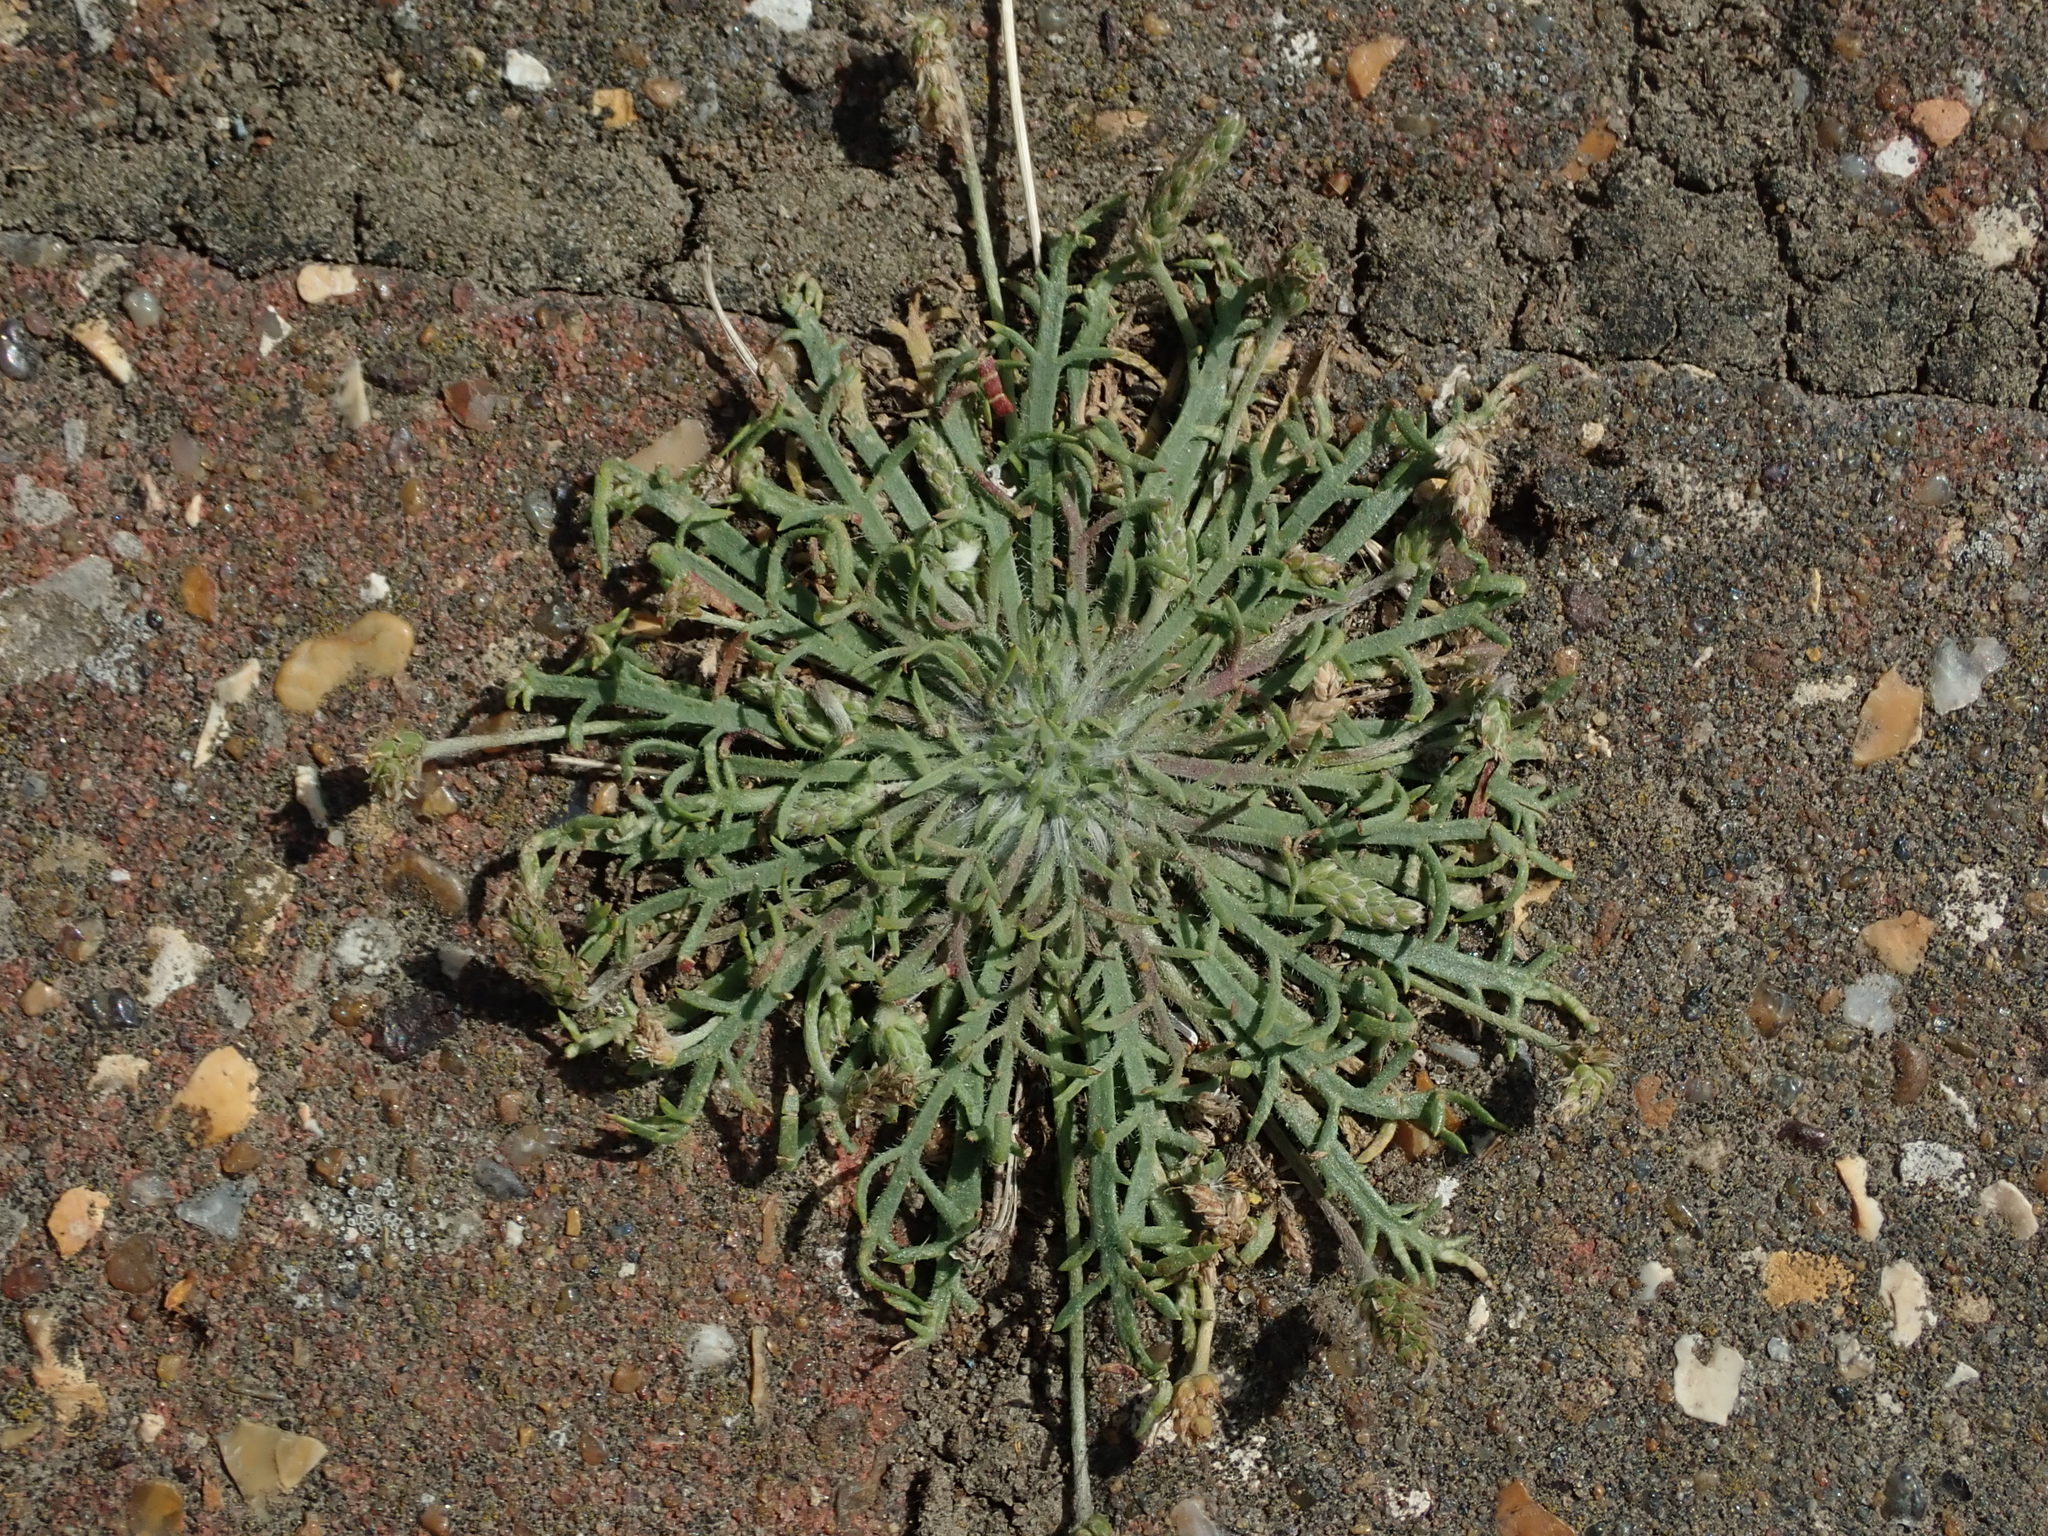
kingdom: Plantae
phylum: Tracheophyta
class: Magnoliopsida
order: Lamiales
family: Plantaginaceae
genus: Plantago
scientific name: Plantago coronopus
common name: Buck's-horn plantain
